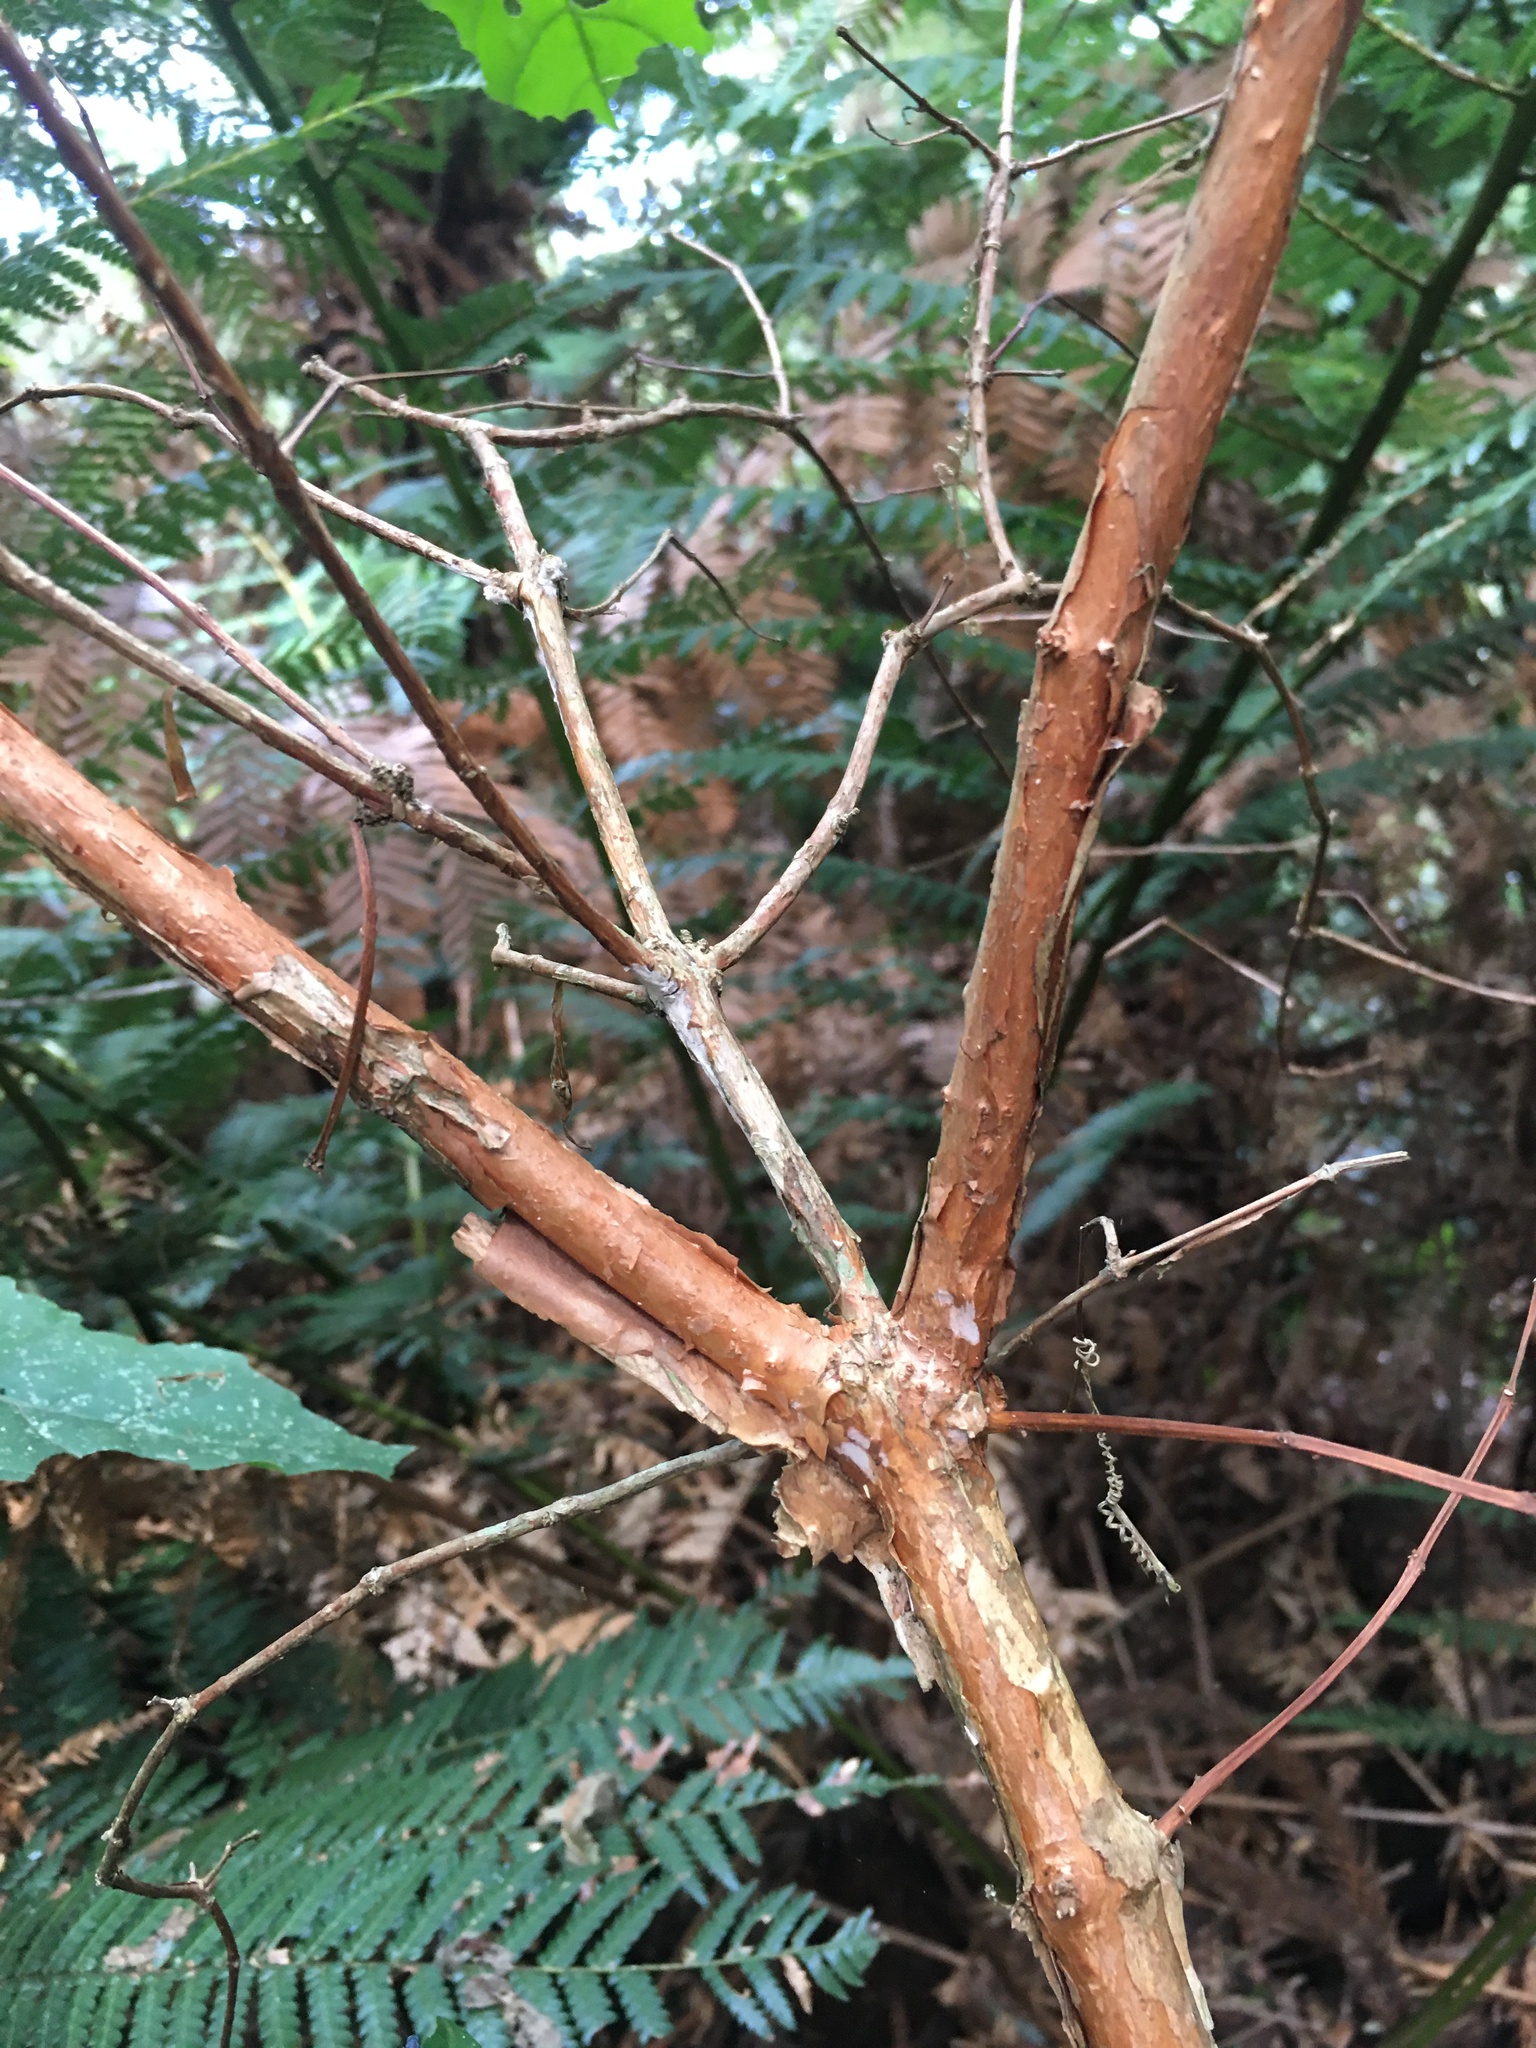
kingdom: Plantae
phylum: Tracheophyta
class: Magnoliopsida
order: Myrtales
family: Onagraceae
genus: Fuchsia
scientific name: Fuchsia regia
